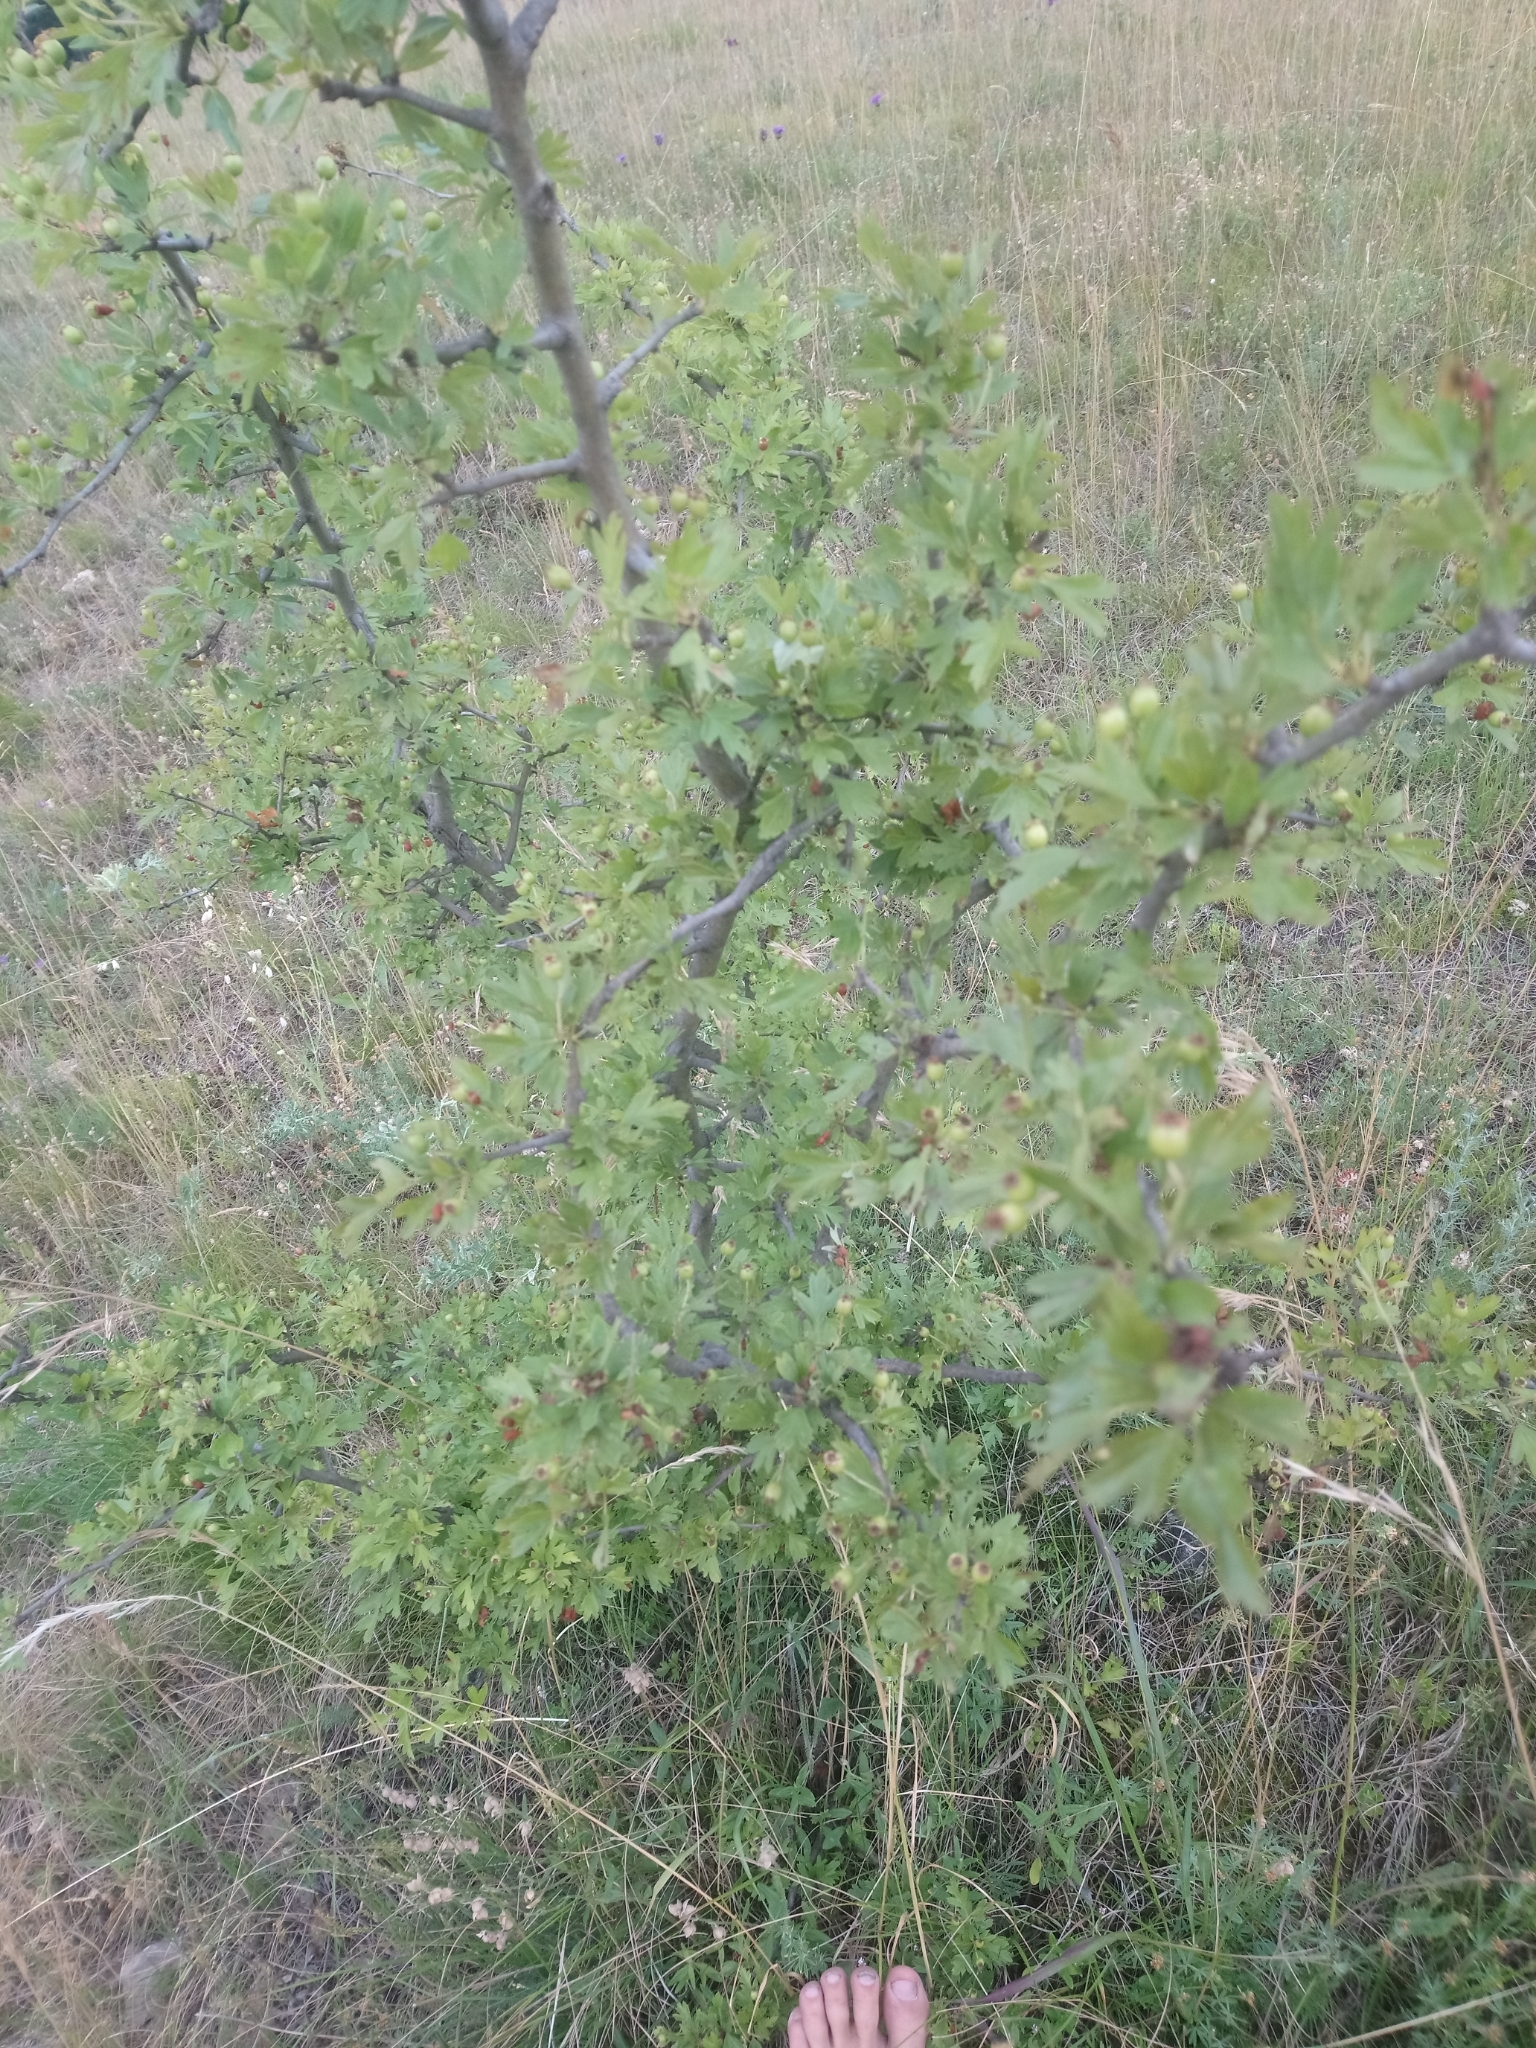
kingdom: Plantae
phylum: Tracheophyta
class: Magnoliopsida
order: Rosales
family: Rosaceae
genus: Crataegus
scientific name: Crataegus monogyna
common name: Hawthorn
